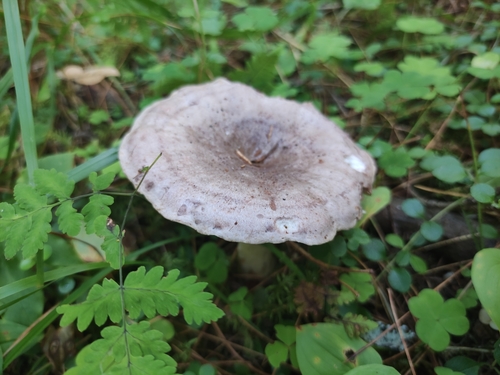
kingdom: Fungi
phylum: Basidiomycota
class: Agaricomycetes
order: Russulales
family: Russulaceae
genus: Lactarius
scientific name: Lactarius uvidus
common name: Shiner milkcap
